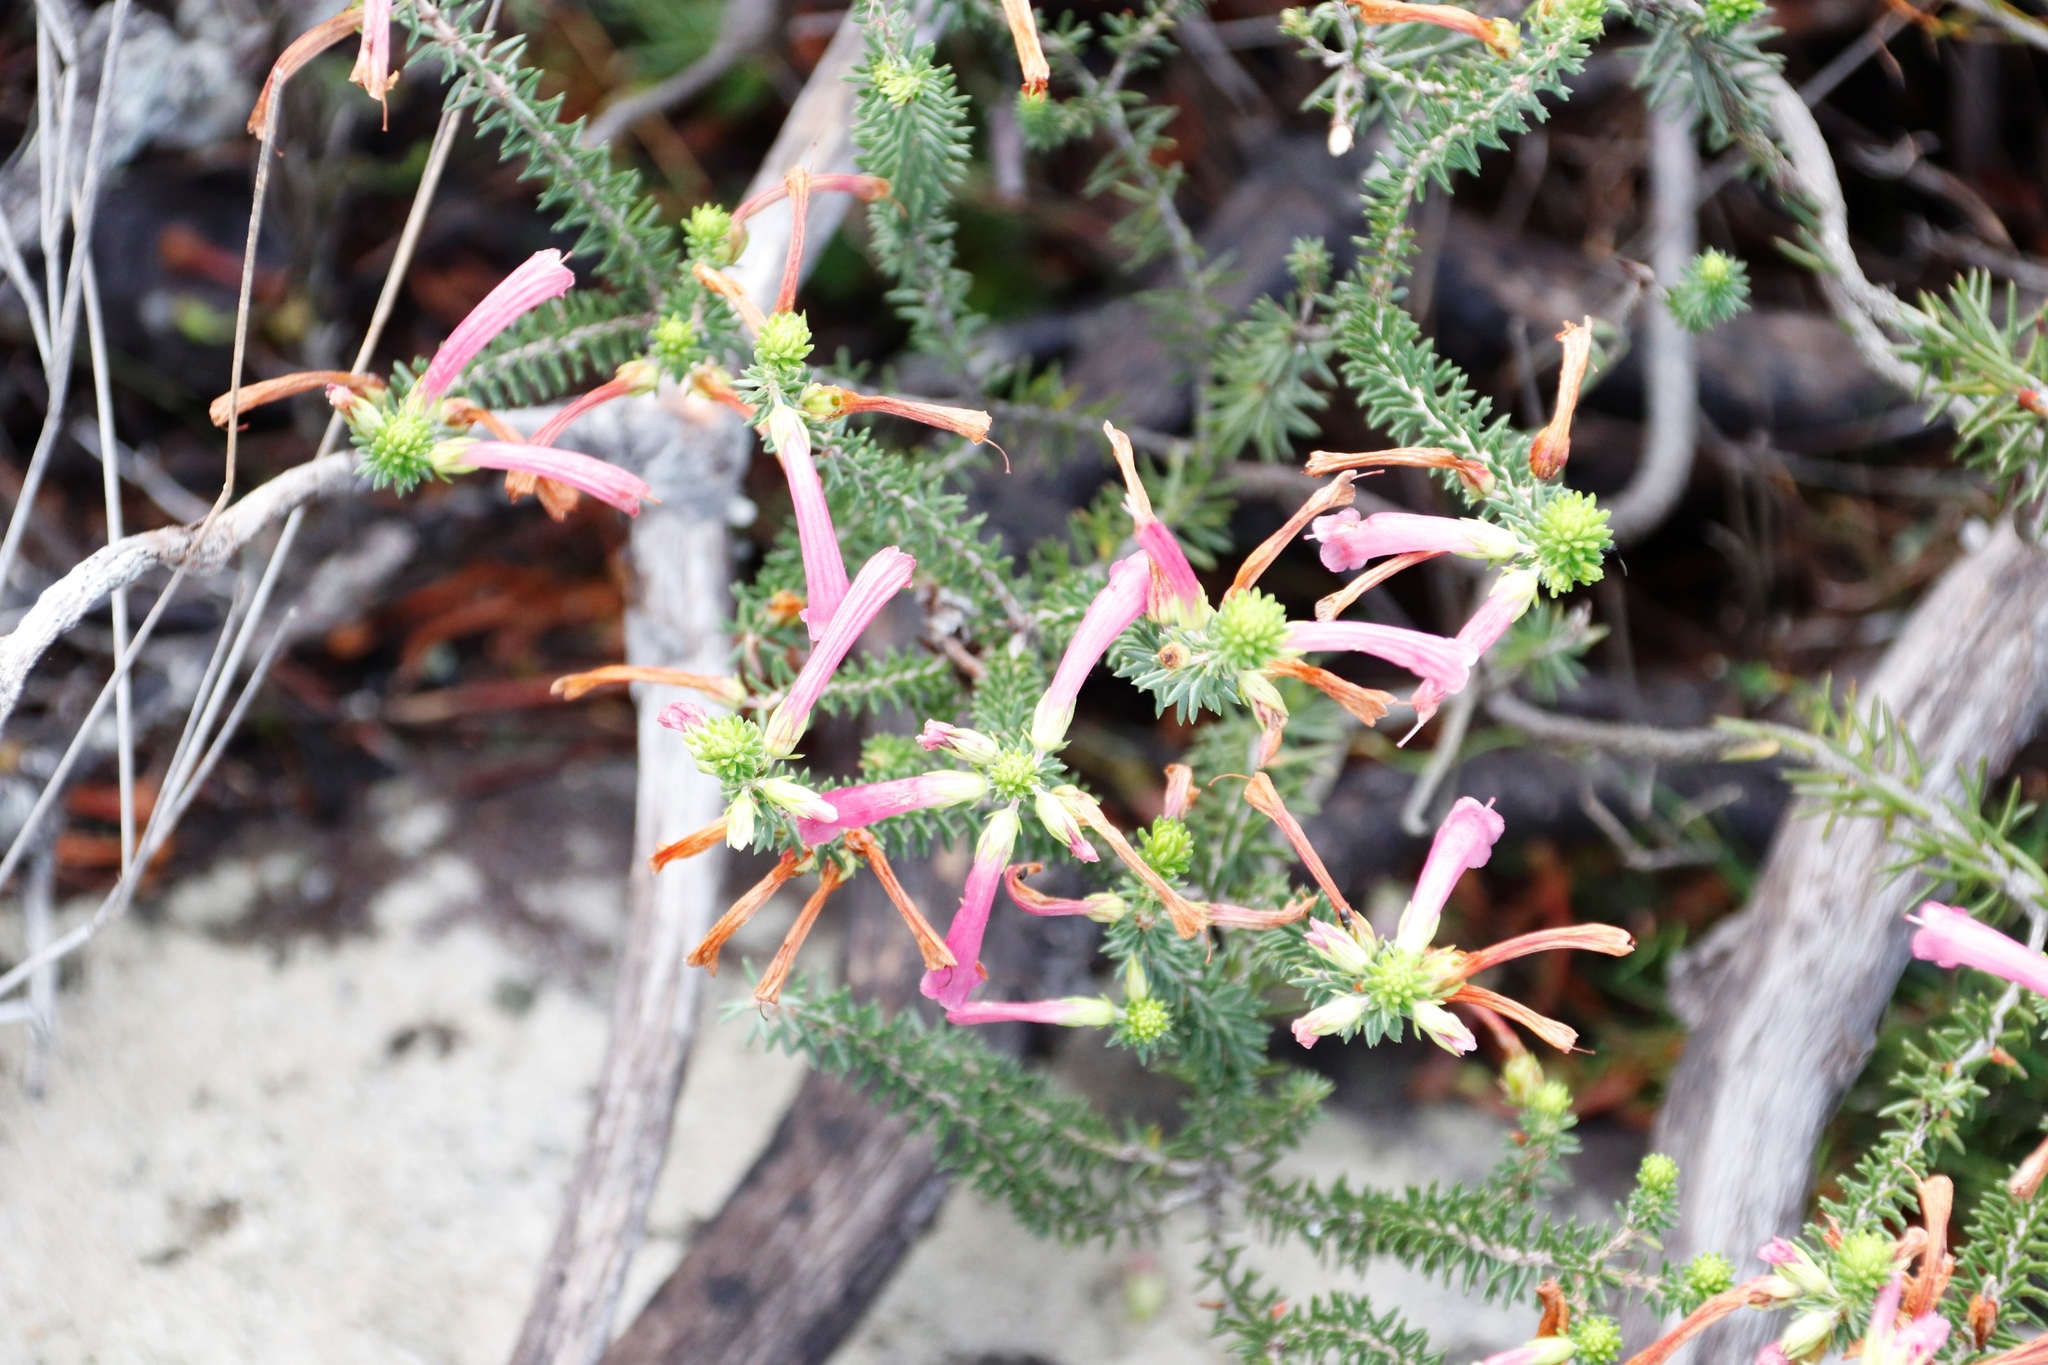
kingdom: Plantae
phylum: Tracheophyta
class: Magnoliopsida
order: Ericales
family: Ericaceae
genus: Erica
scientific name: Erica abietina
